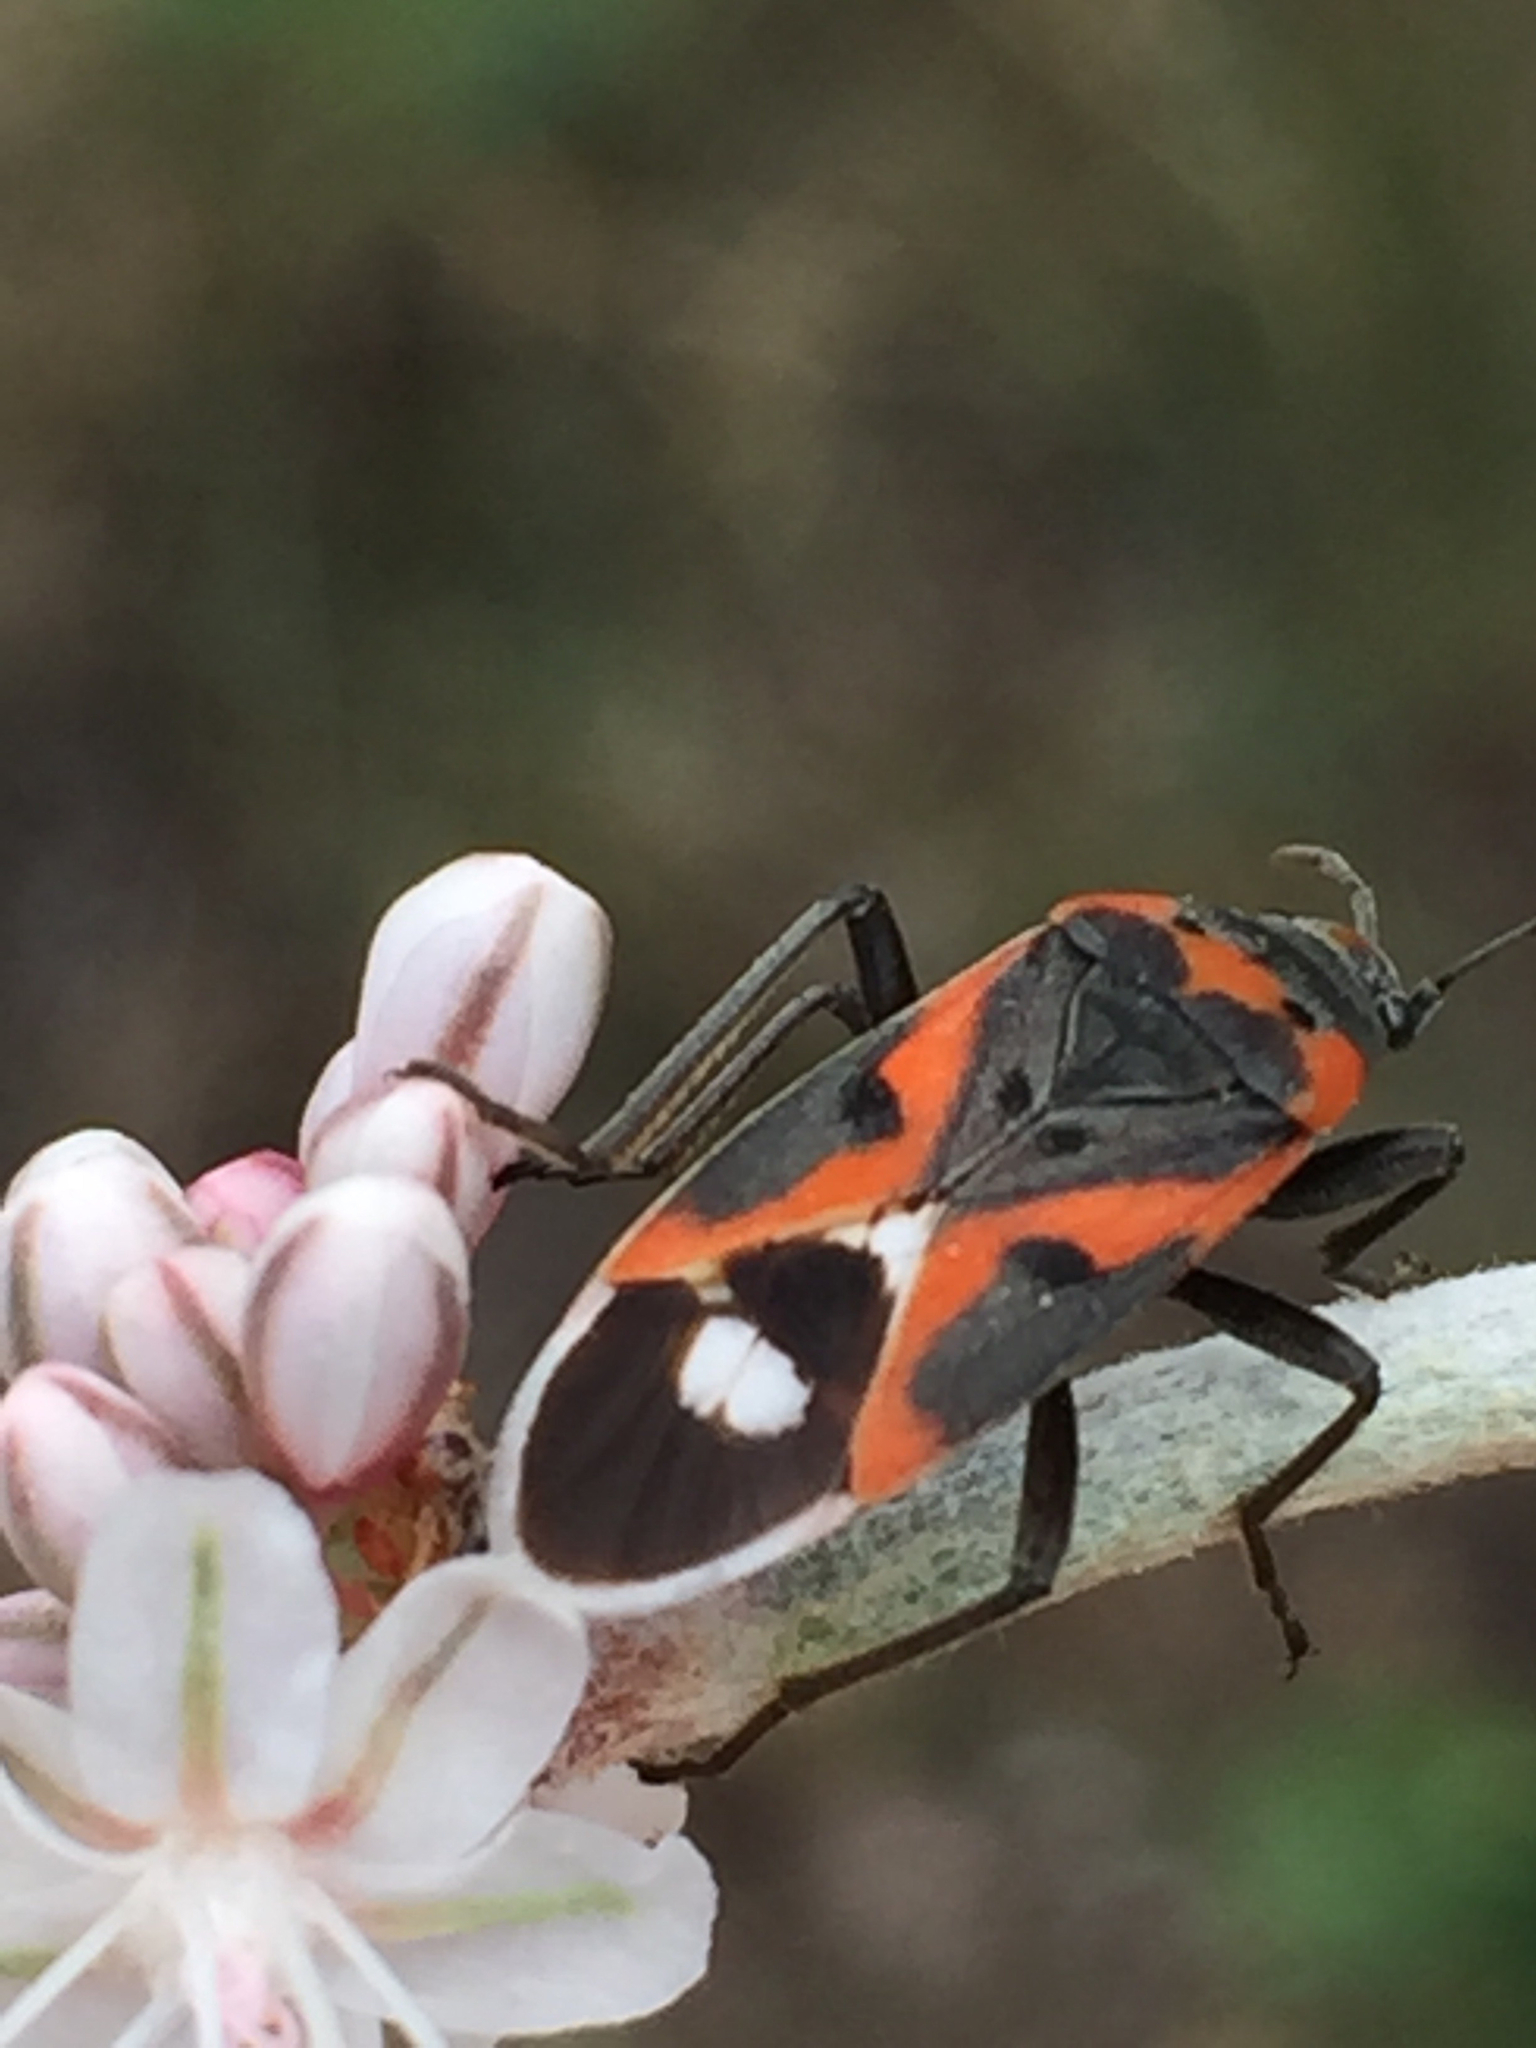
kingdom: Animalia
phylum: Arthropoda
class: Insecta
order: Hemiptera
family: Lygaeidae
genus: Lygaeus
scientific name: Lygaeus kalmii
